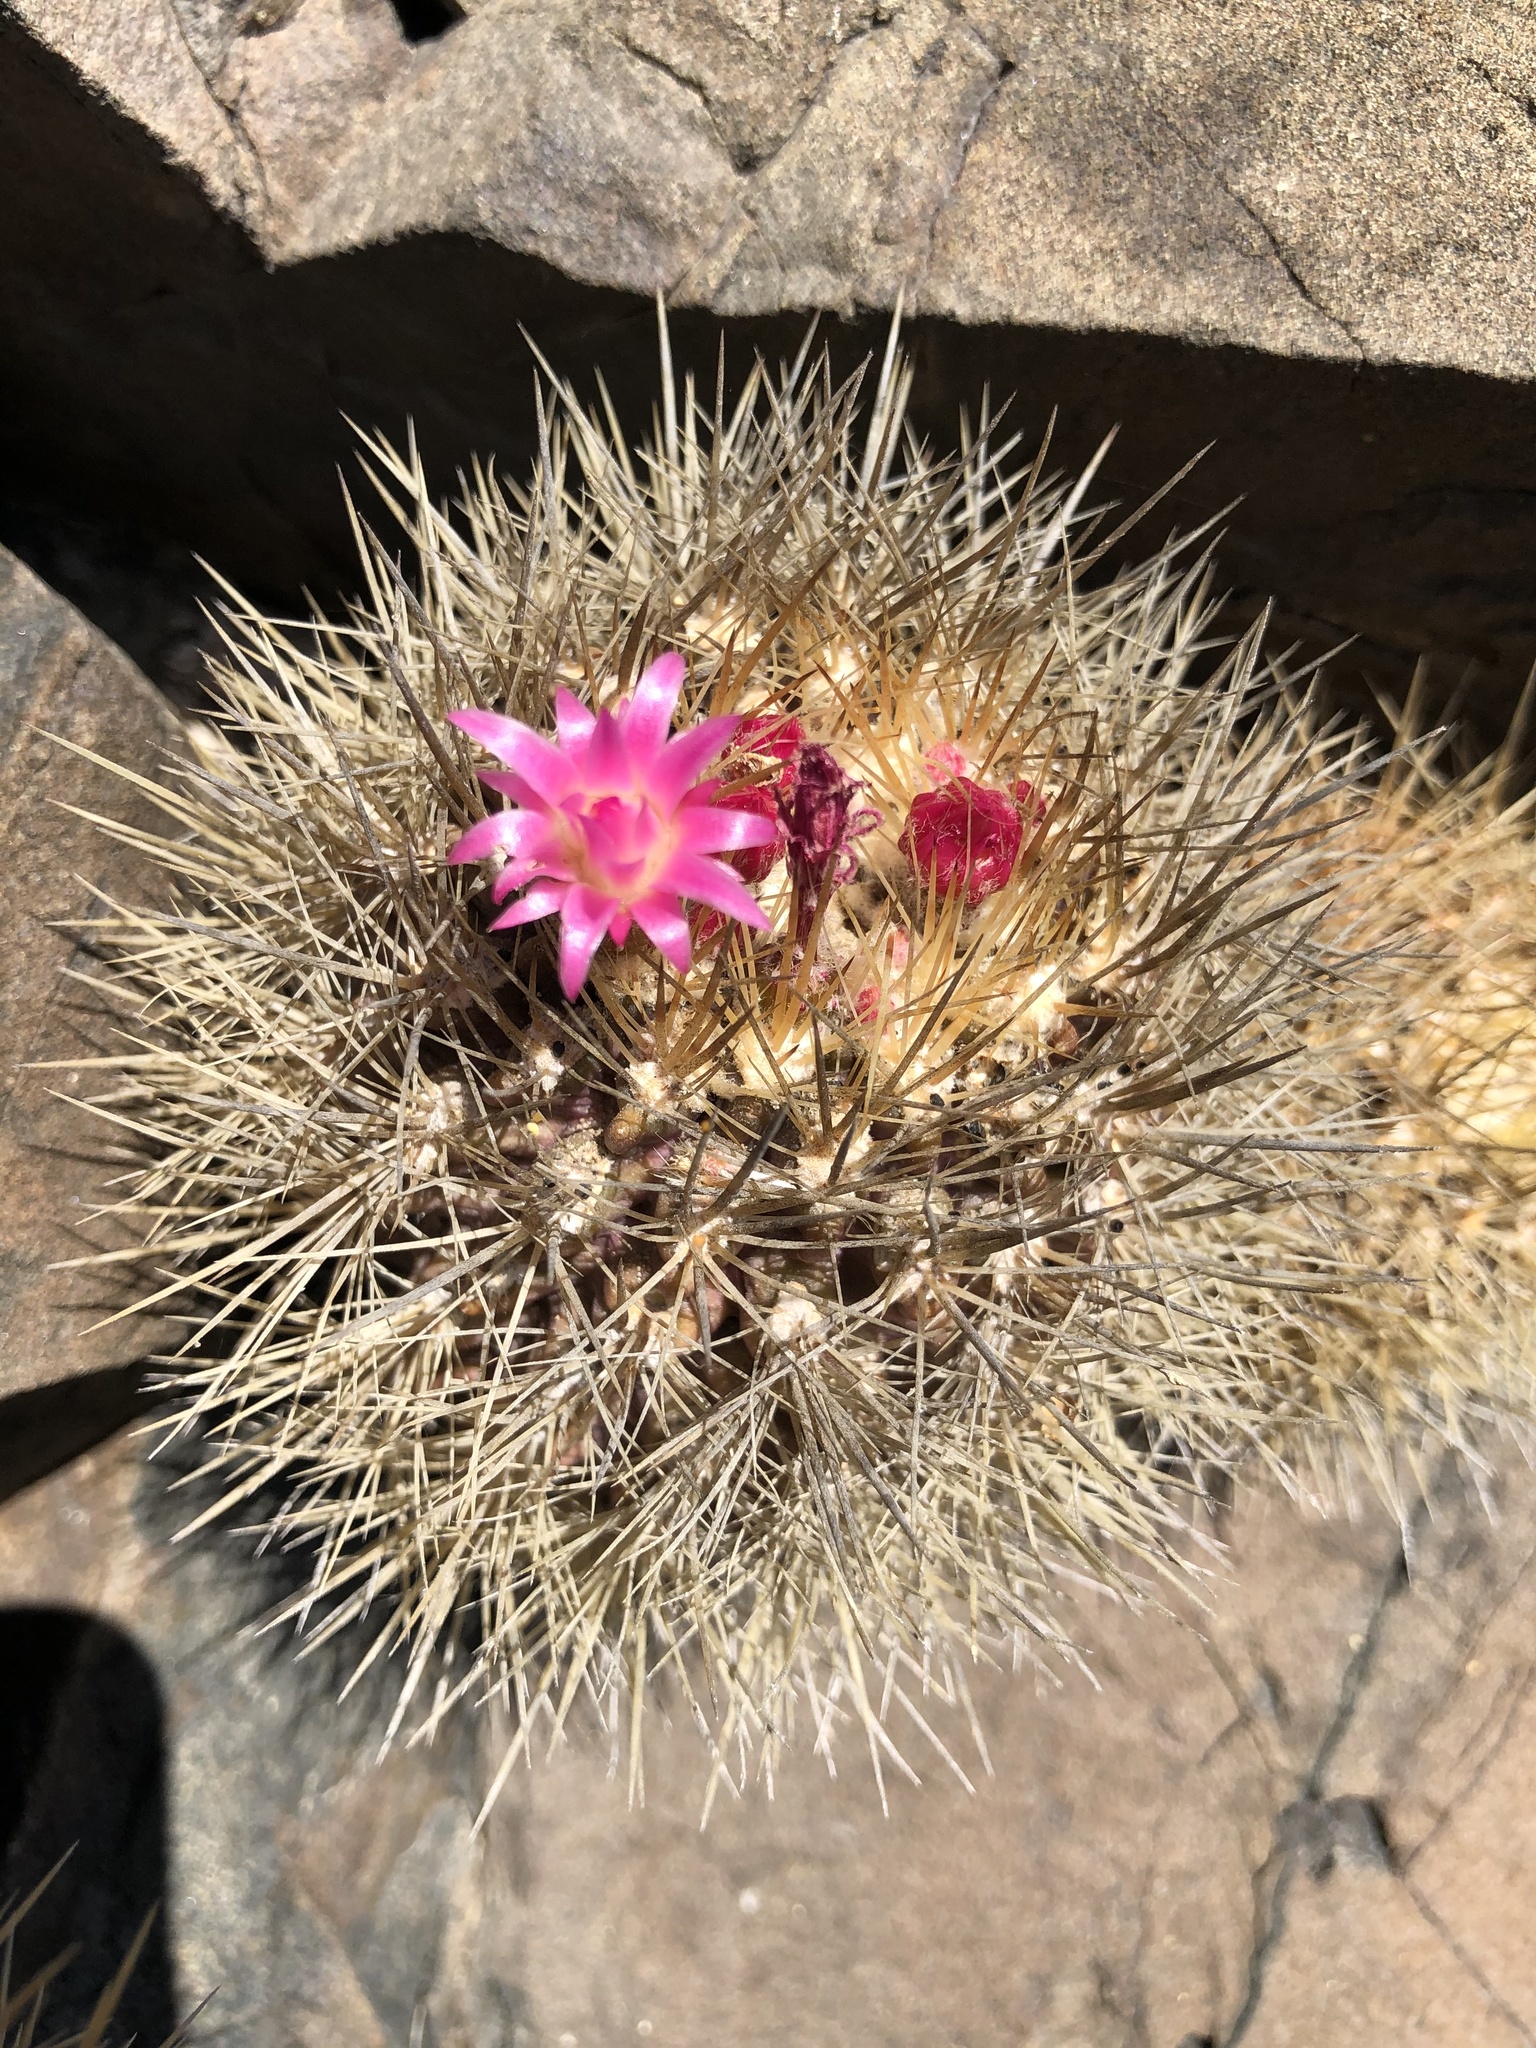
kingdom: Plantae
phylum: Tracheophyta
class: Magnoliopsida
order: Caryophyllales
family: Cactaceae
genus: Eriosyce
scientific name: Eriosyce wagenknechtii
